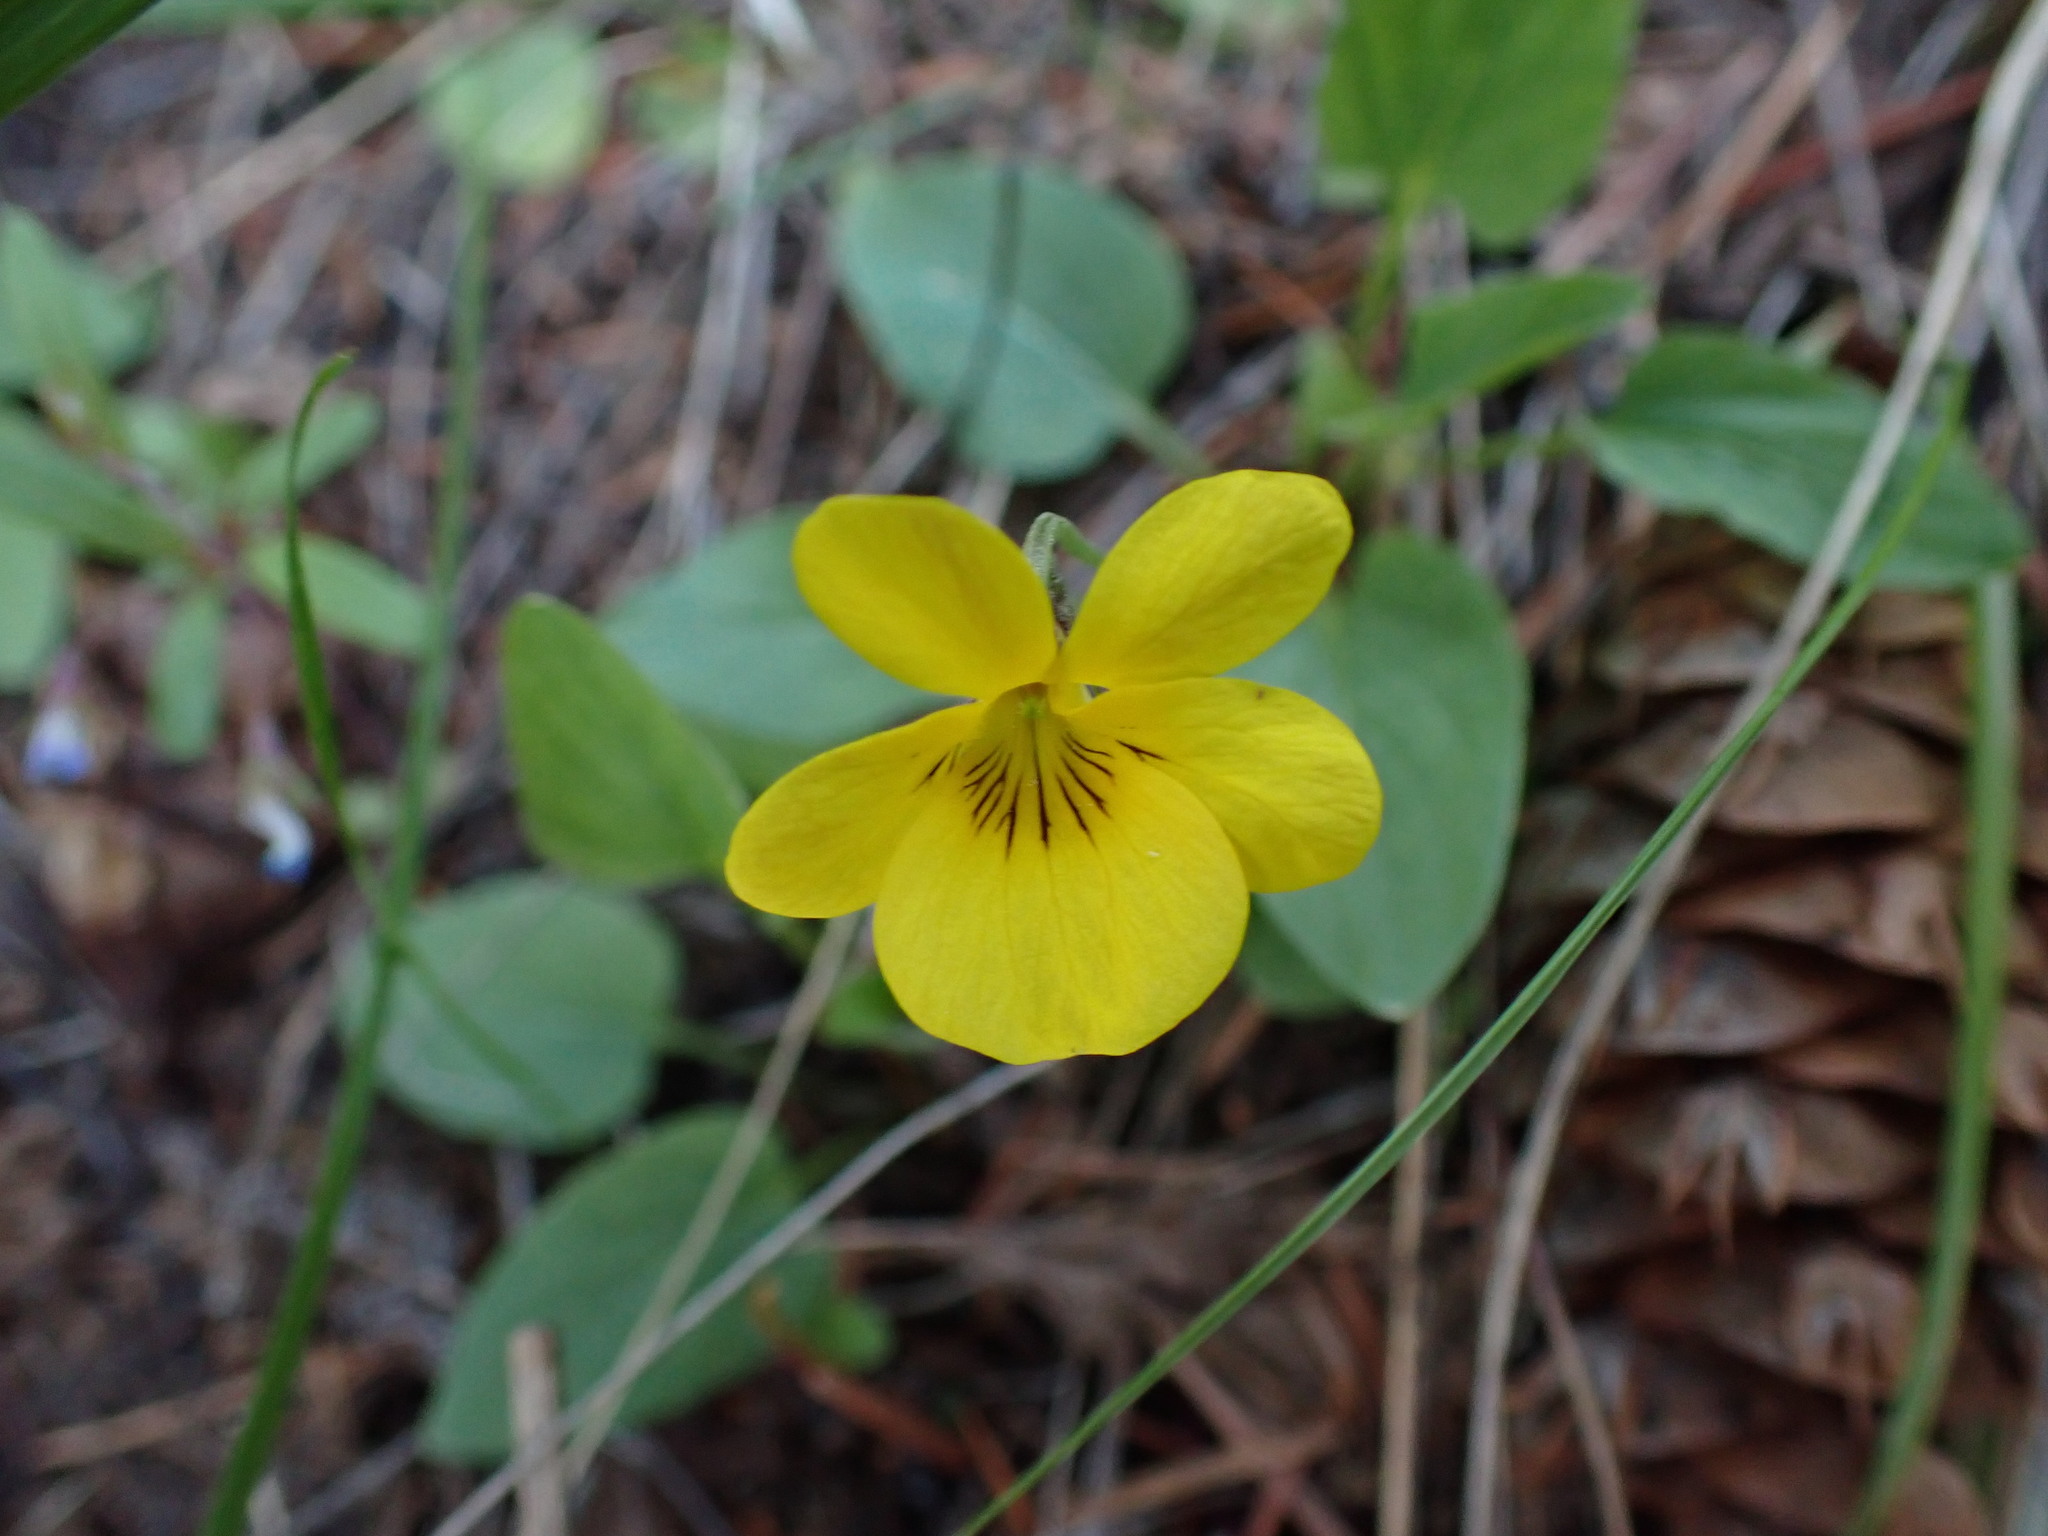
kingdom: Plantae
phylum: Tracheophyta
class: Magnoliopsida
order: Malpighiales
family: Violaceae
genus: Viola
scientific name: Viola vallicola
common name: Valley violet
